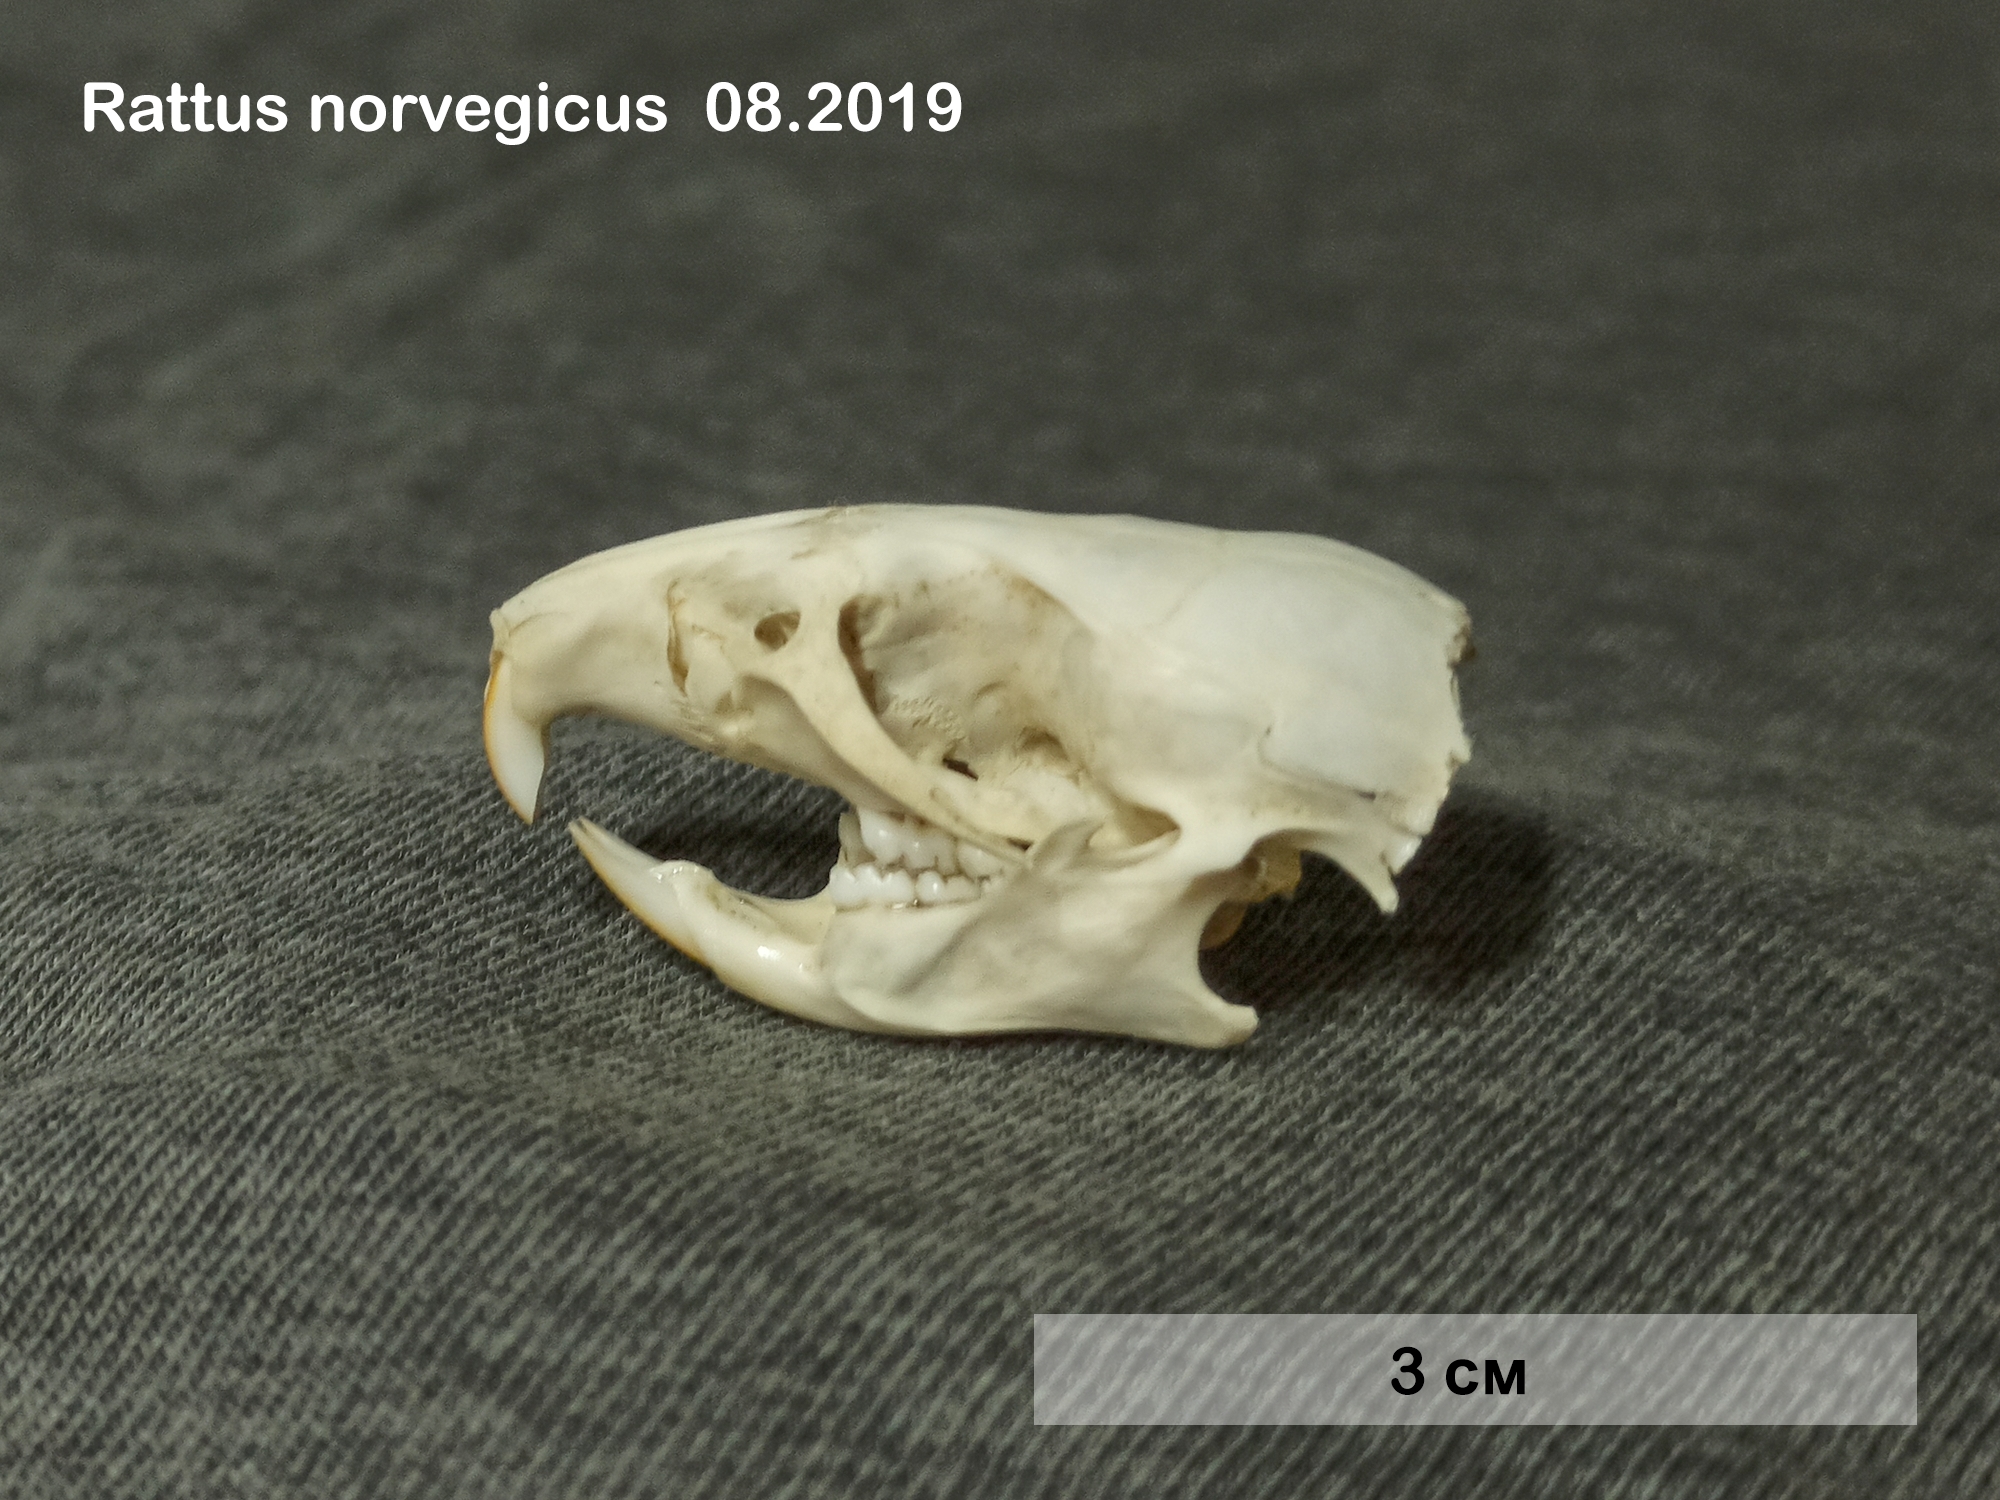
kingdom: Animalia
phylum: Chordata
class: Mammalia
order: Rodentia
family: Muridae
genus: Rattus
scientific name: Rattus norvegicus
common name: Brown rat
